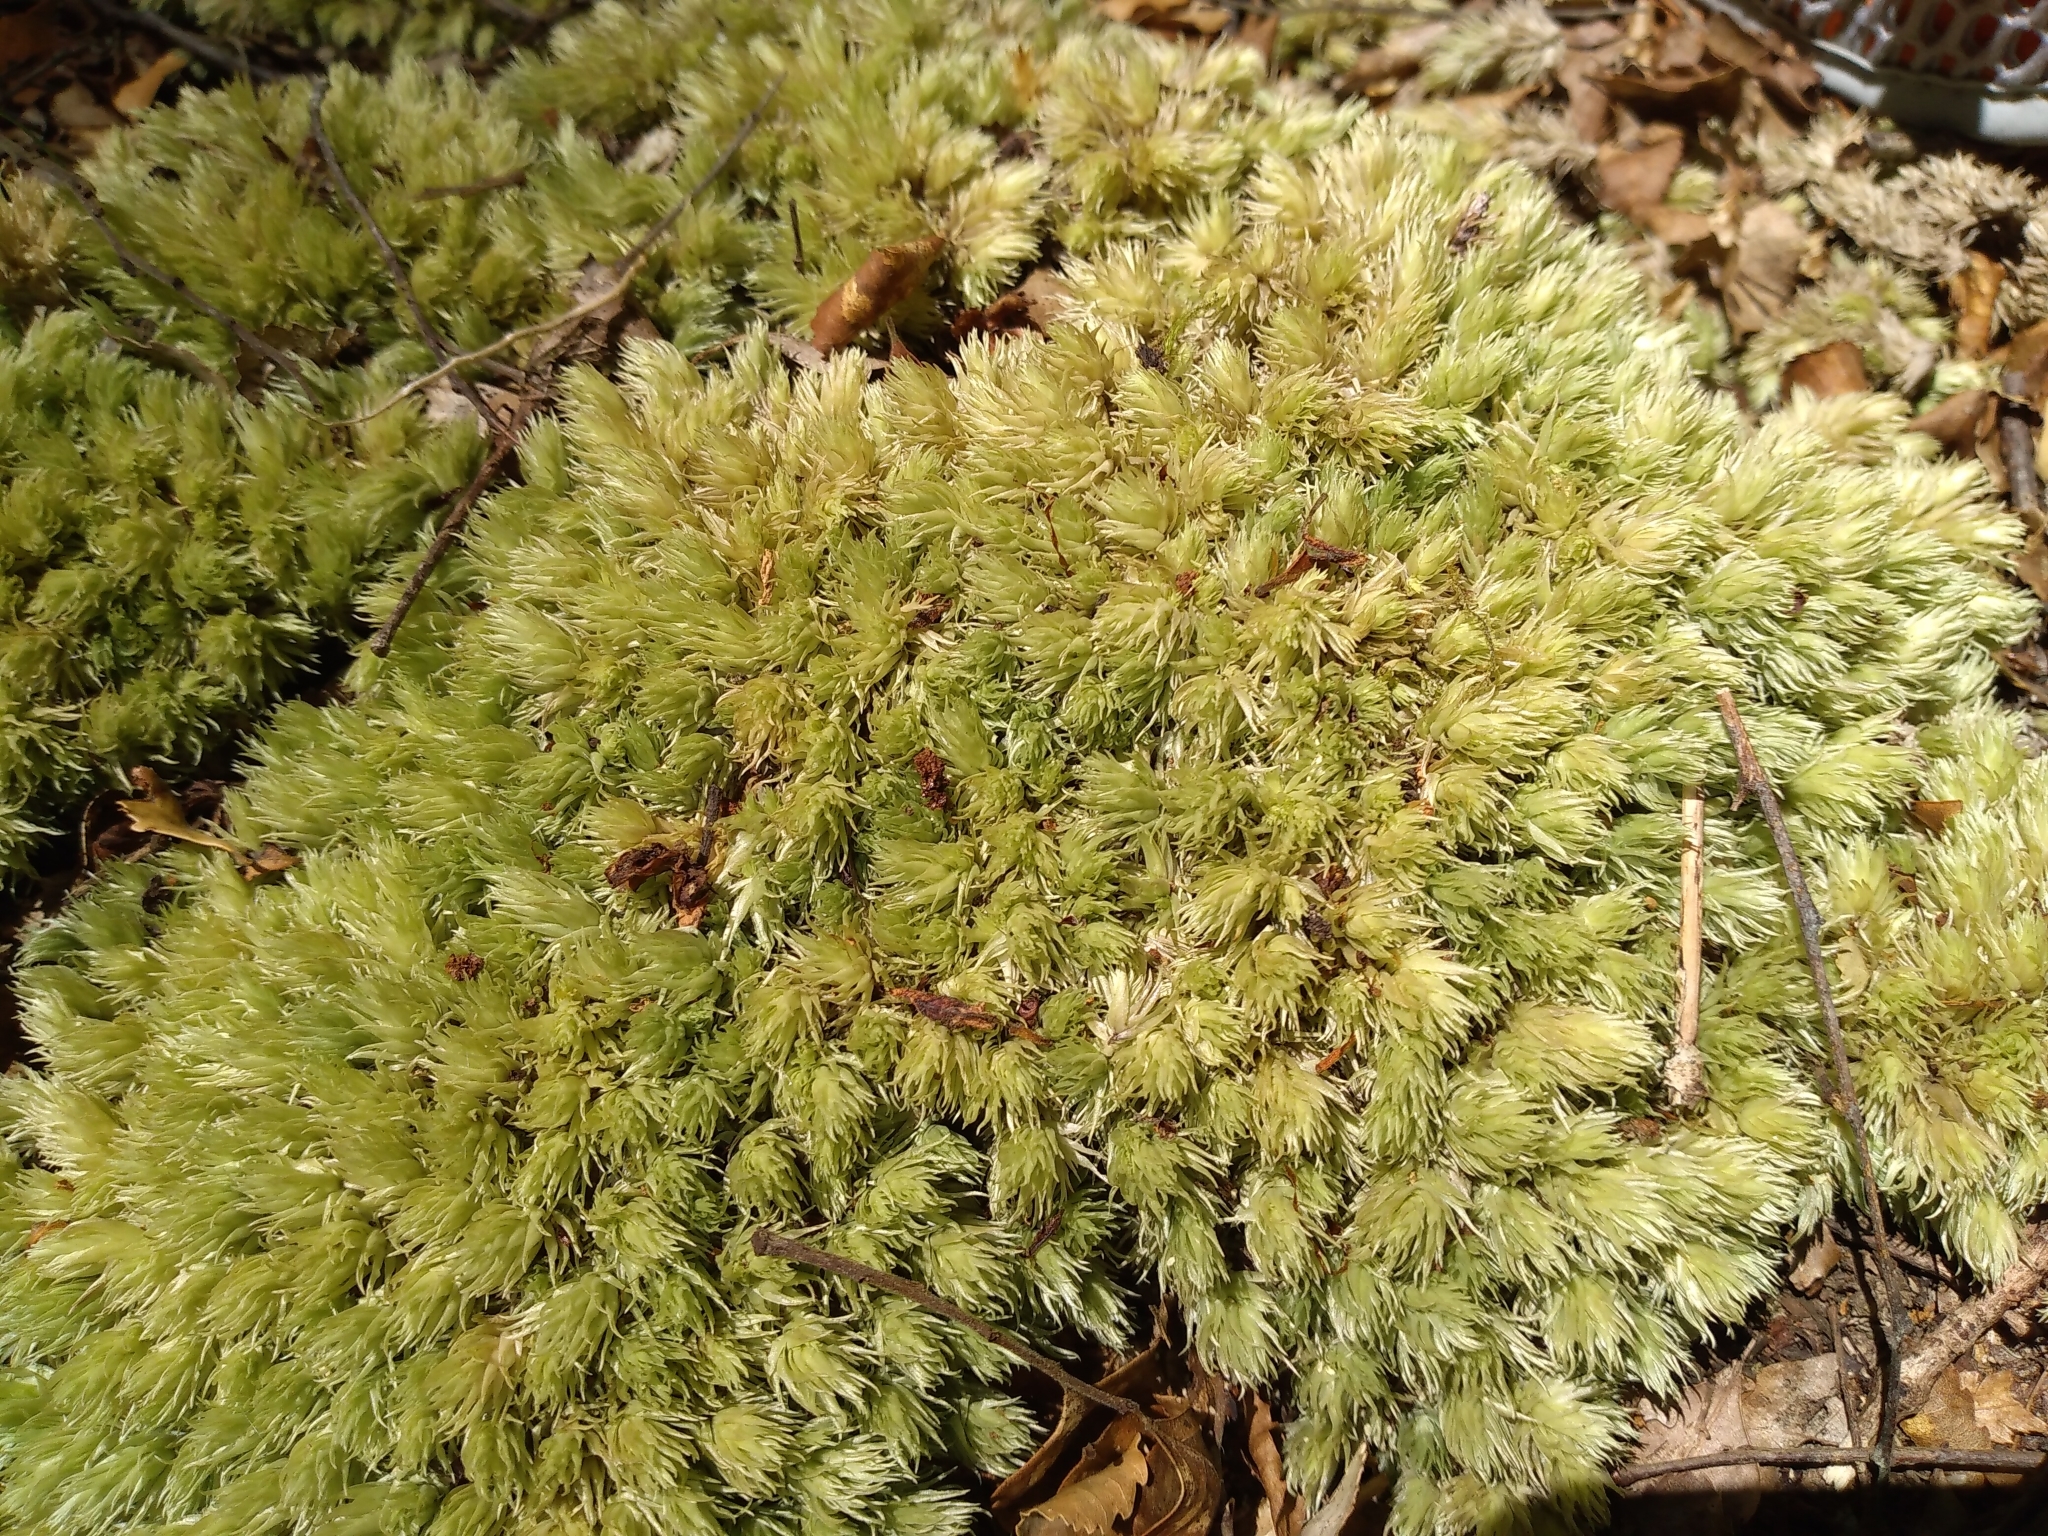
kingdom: Plantae
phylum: Bryophyta
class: Bryopsida
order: Dicranales
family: Leucobryaceae
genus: Leucobryum
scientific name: Leucobryum javense
